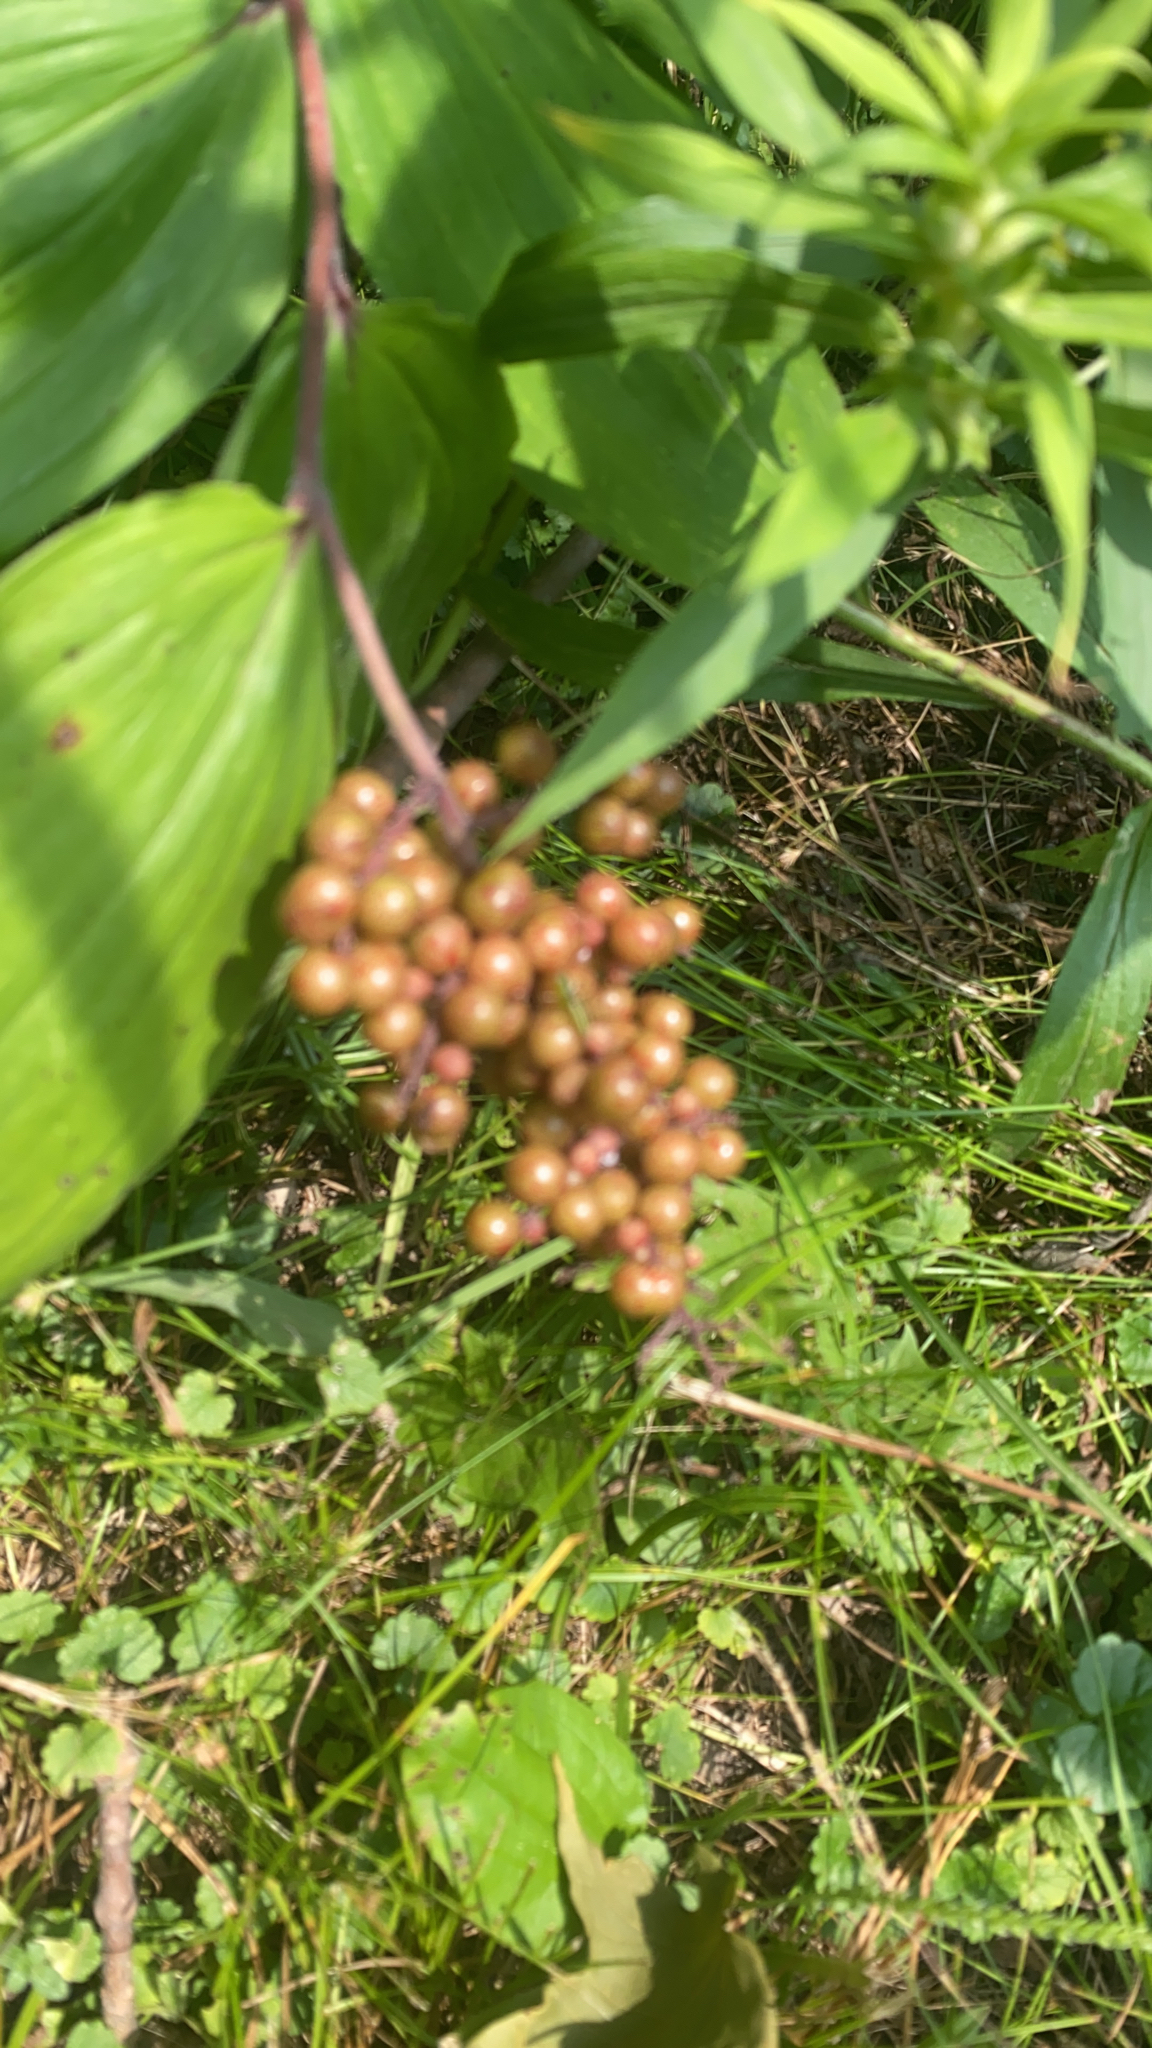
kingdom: Plantae
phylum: Tracheophyta
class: Liliopsida
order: Asparagales
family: Asparagaceae
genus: Maianthemum
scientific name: Maianthemum racemosum
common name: False spikenard
